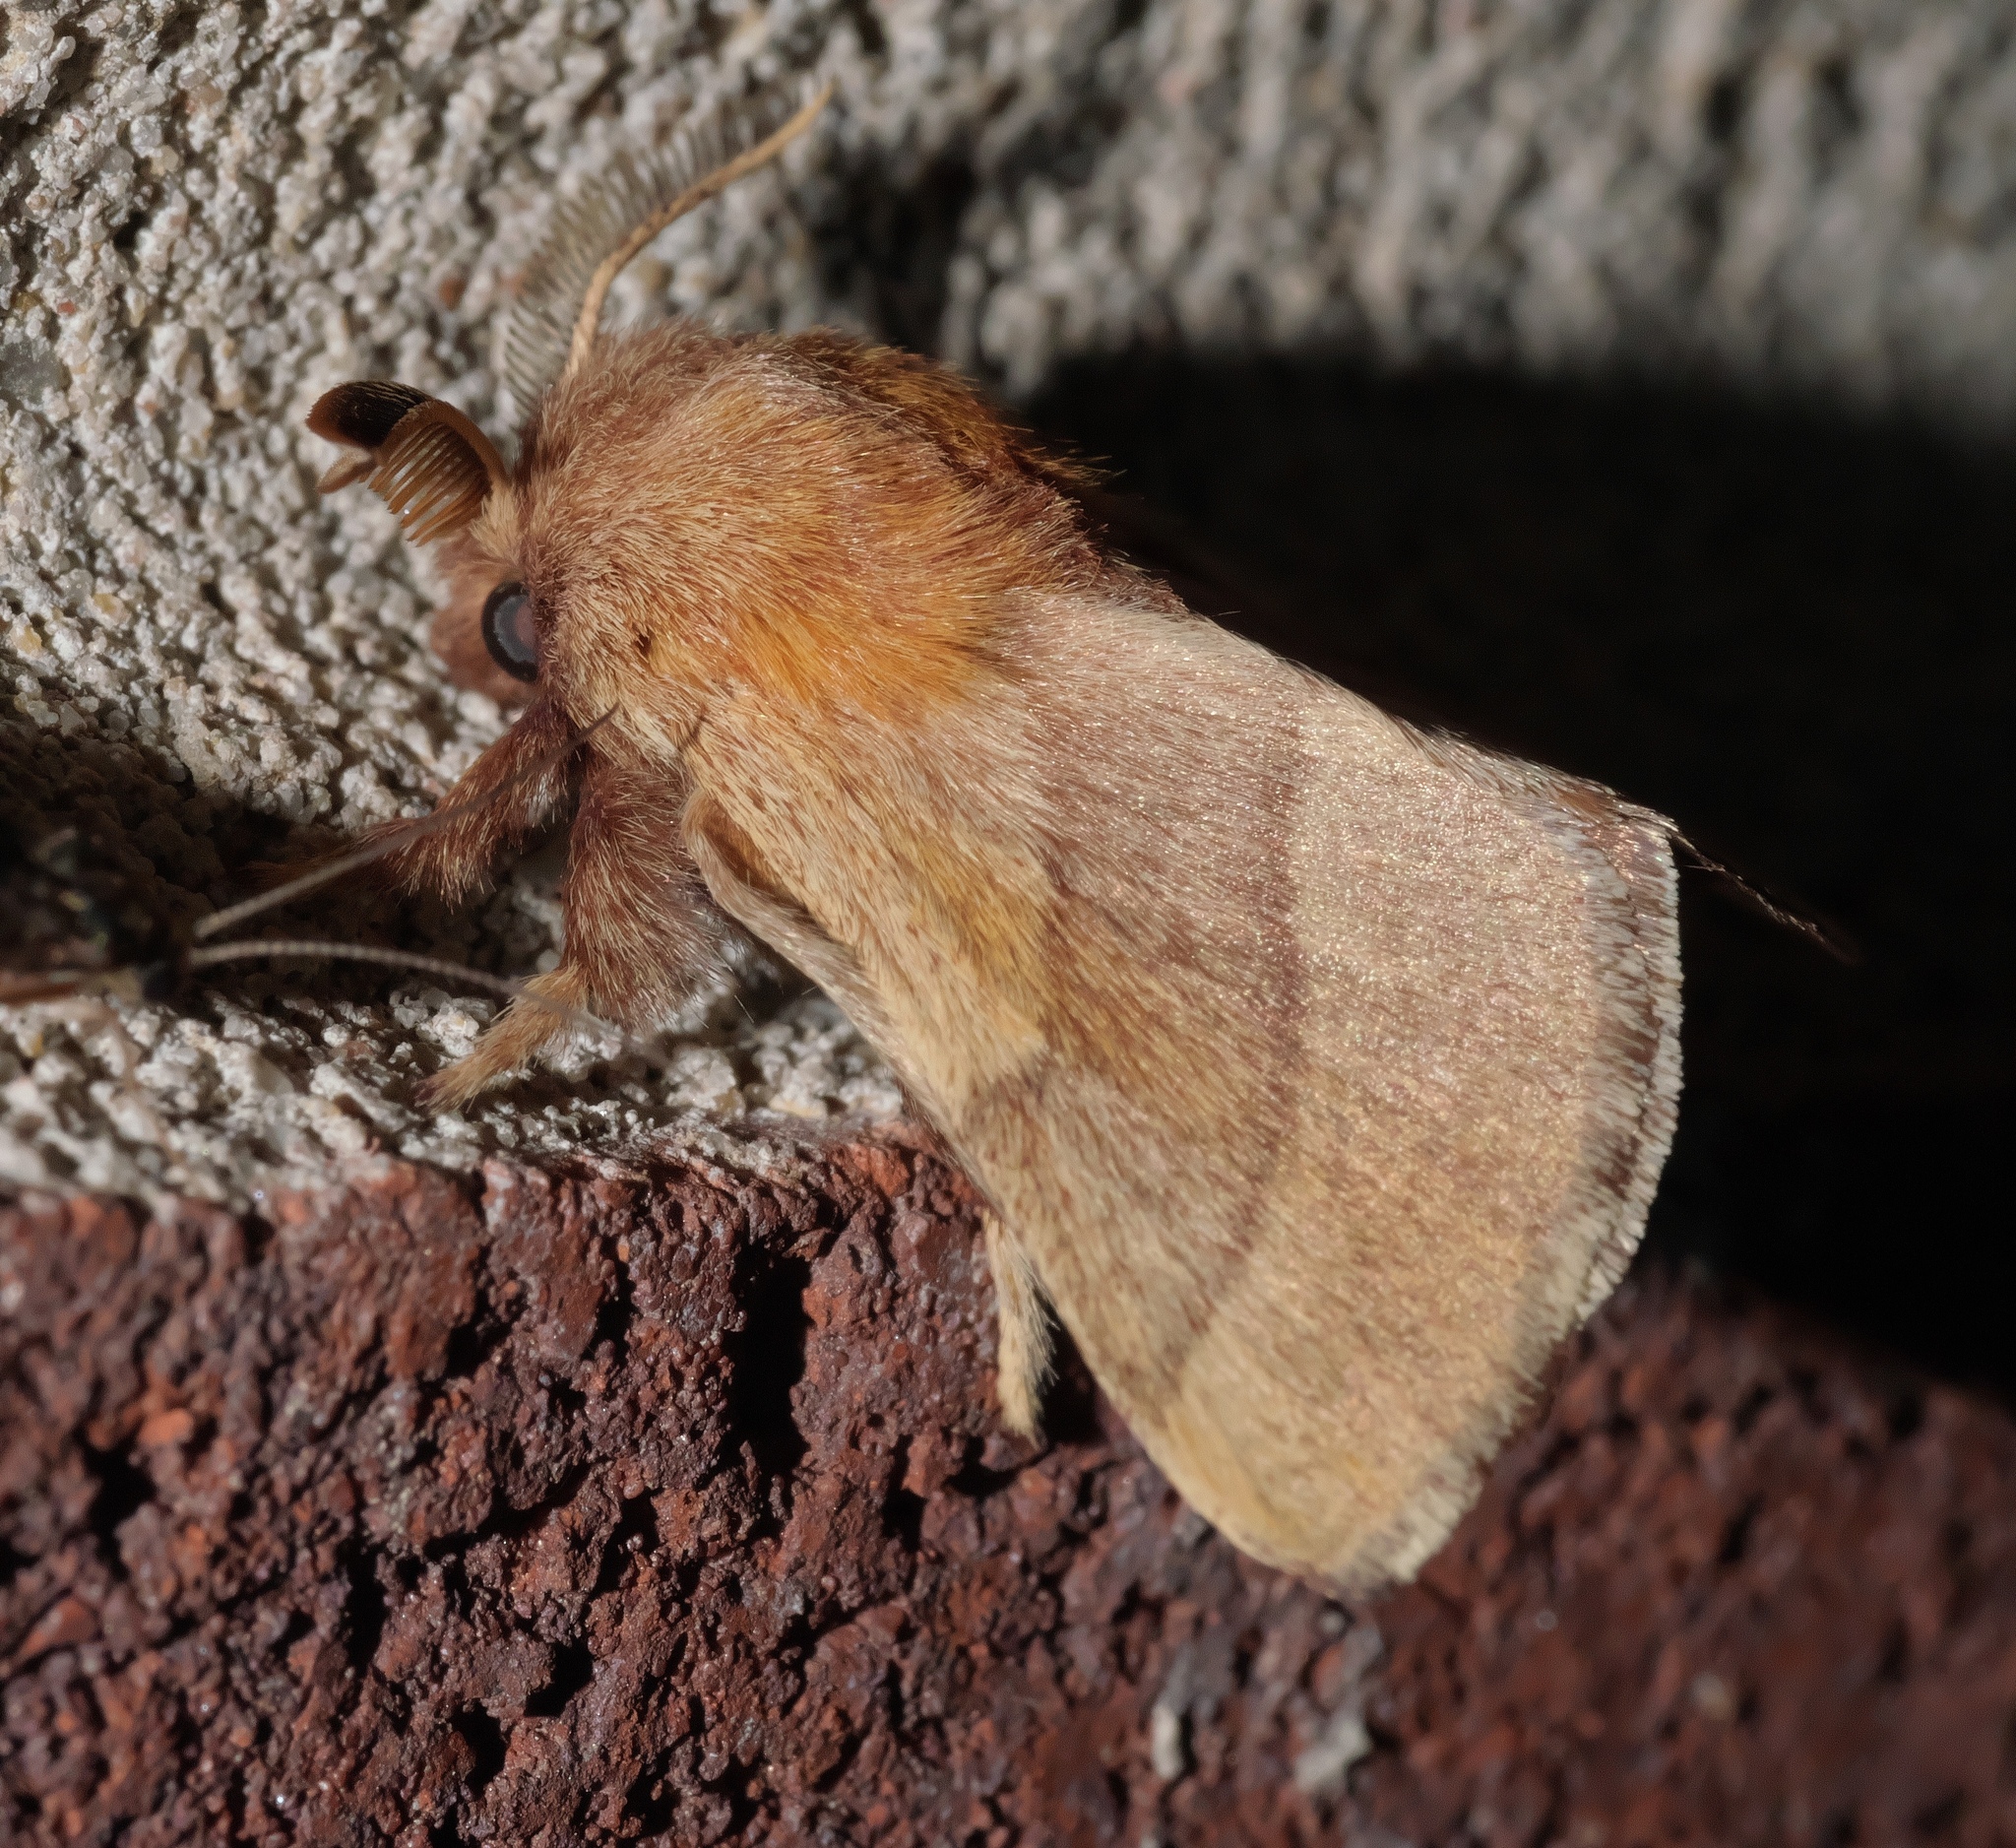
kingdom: Animalia
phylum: Arthropoda
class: Insecta
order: Lepidoptera
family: Lasiocampidae
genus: Malacosoma
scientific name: Malacosoma disstria
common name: Forest tent caterpillar
